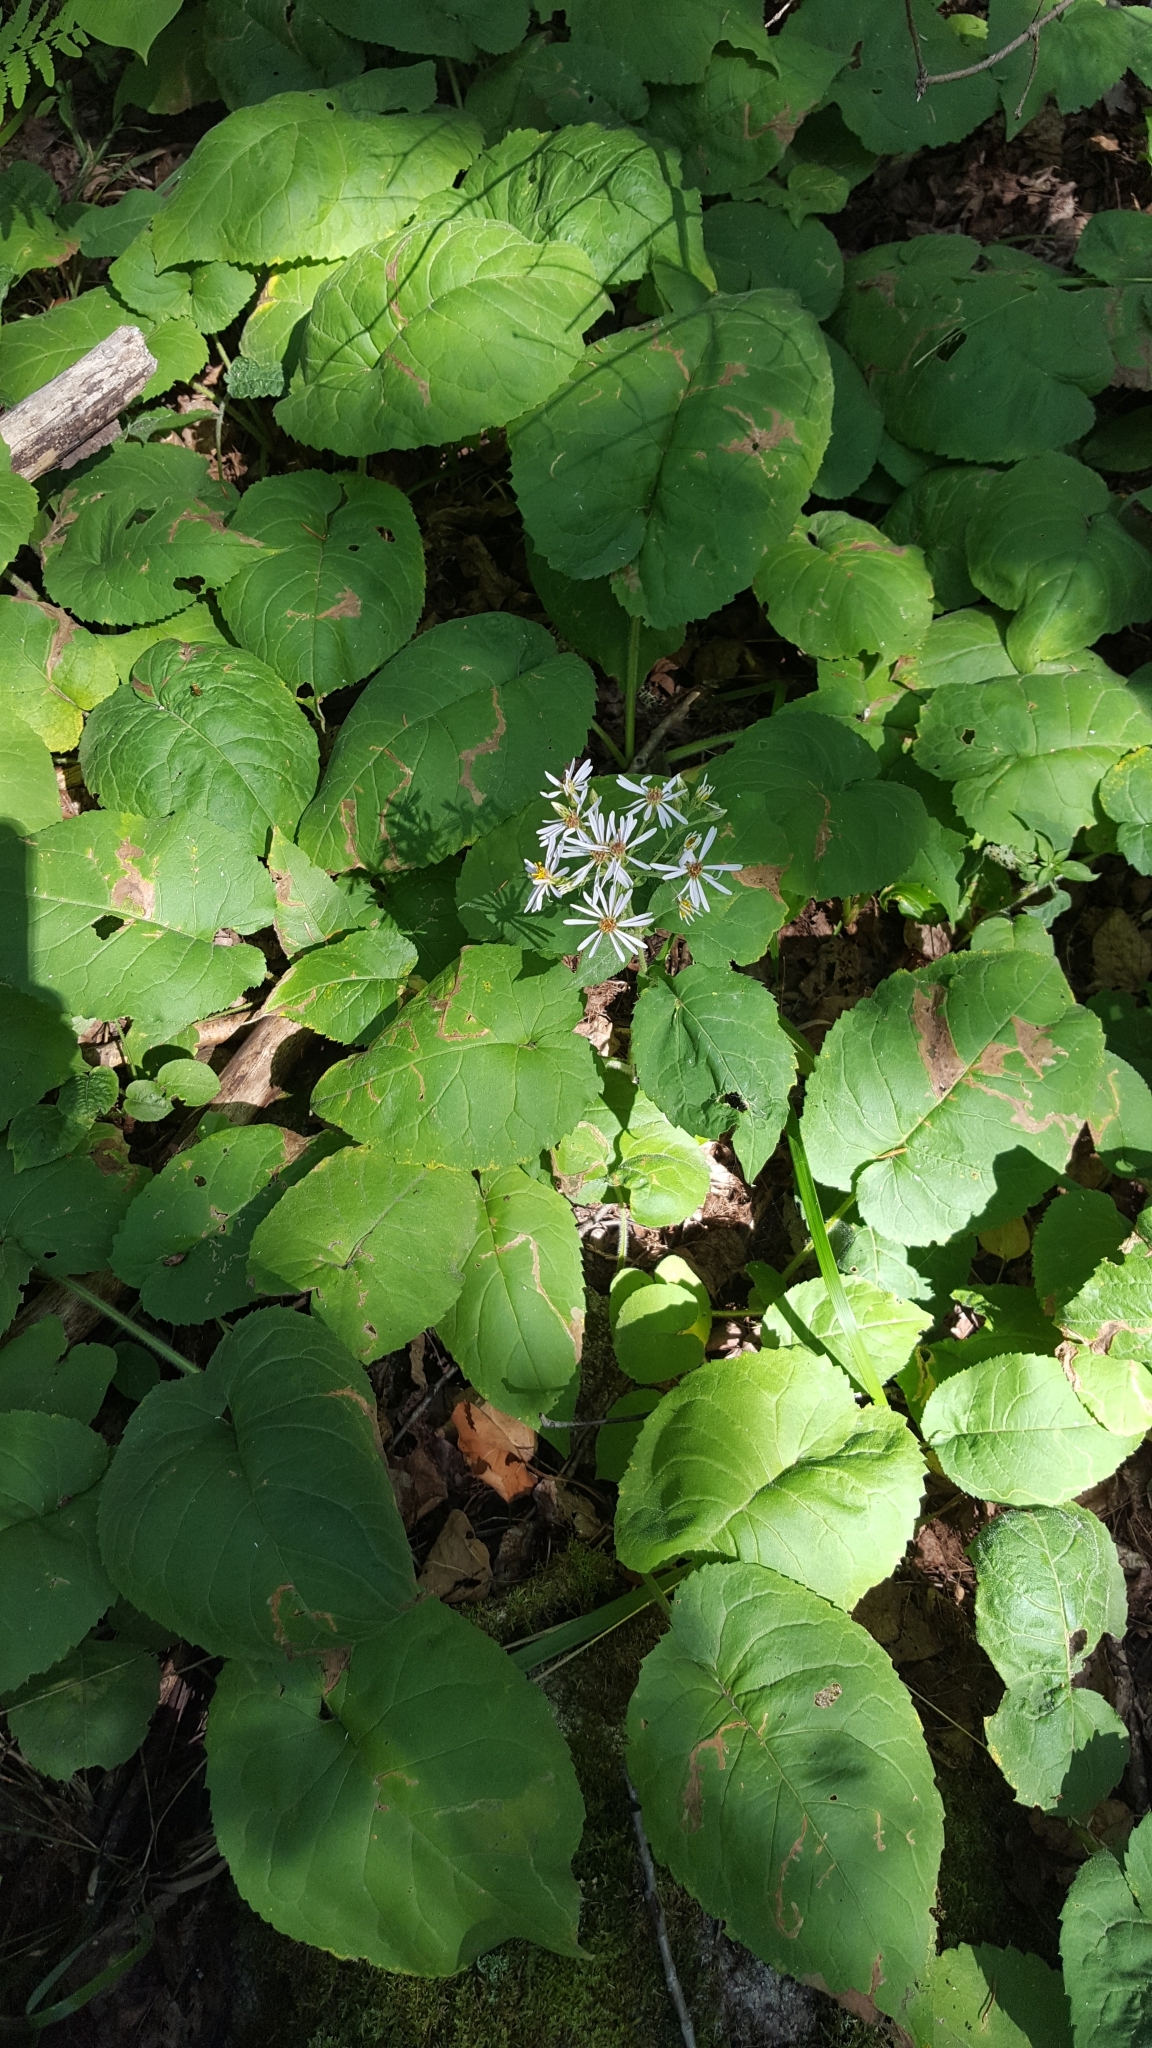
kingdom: Plantae
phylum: Tracheophyta
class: Magnoliopsida
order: Asterales
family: Asteraceae
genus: Eurybia
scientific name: Eurybia macrophylla
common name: Big-leaved aster
